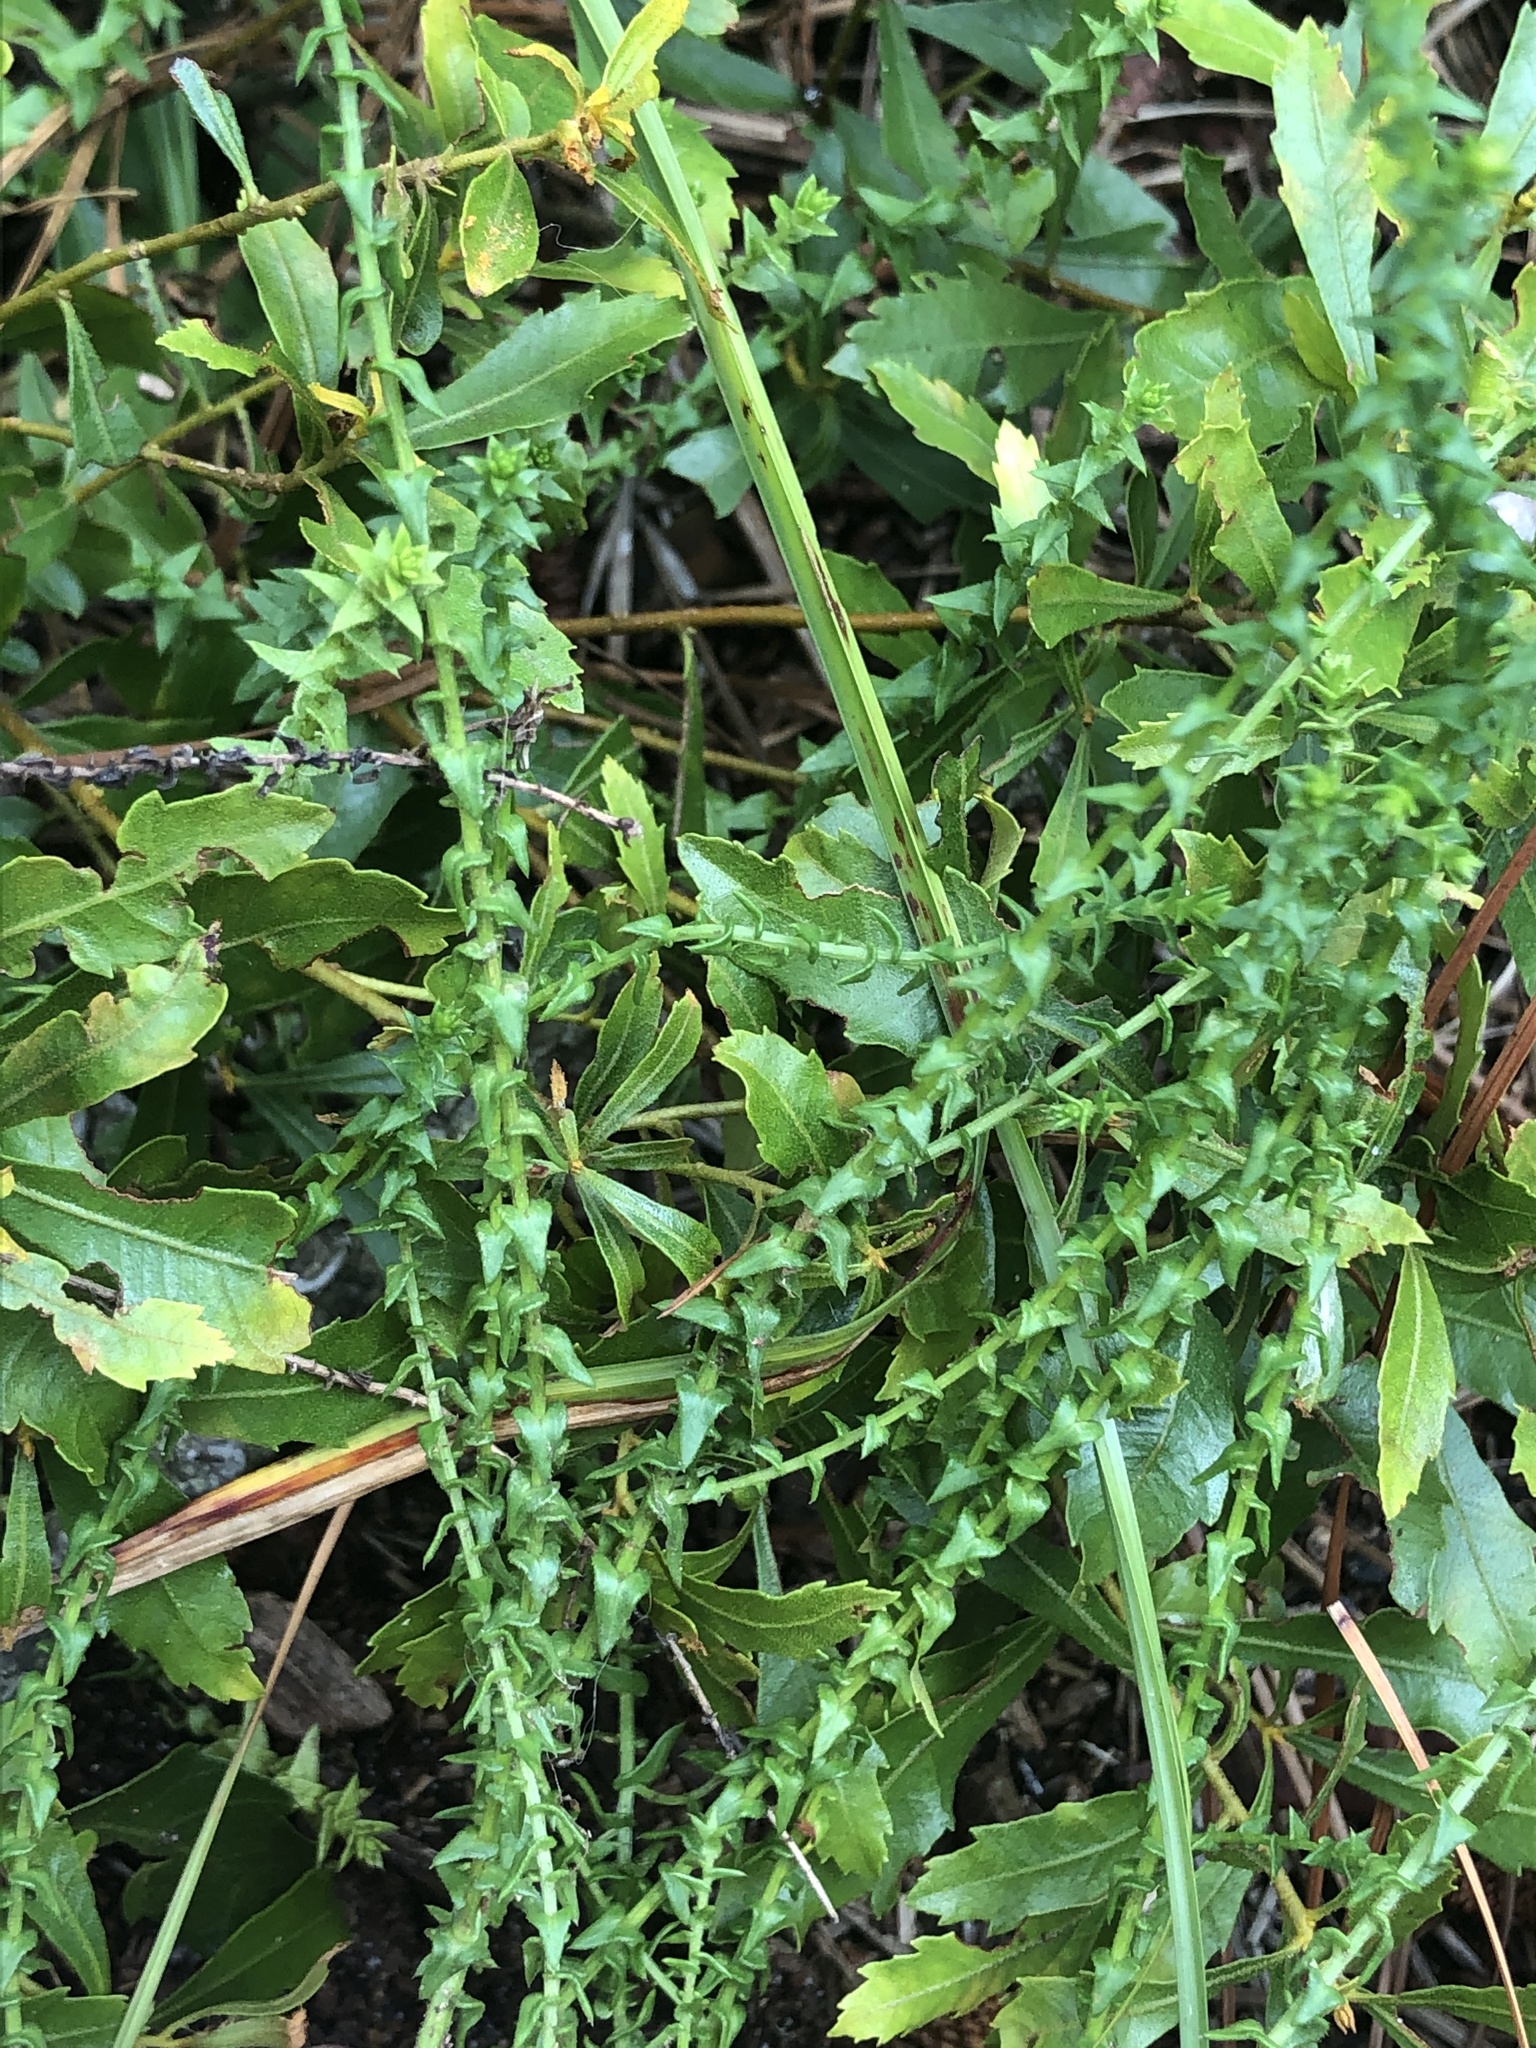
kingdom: Plantae
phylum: Tracheophyta
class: Magnoliopsida
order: Asterales
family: Asteraceae
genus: Symphyotrichum
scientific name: Symphyotrichum walteri
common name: Walter's aster
